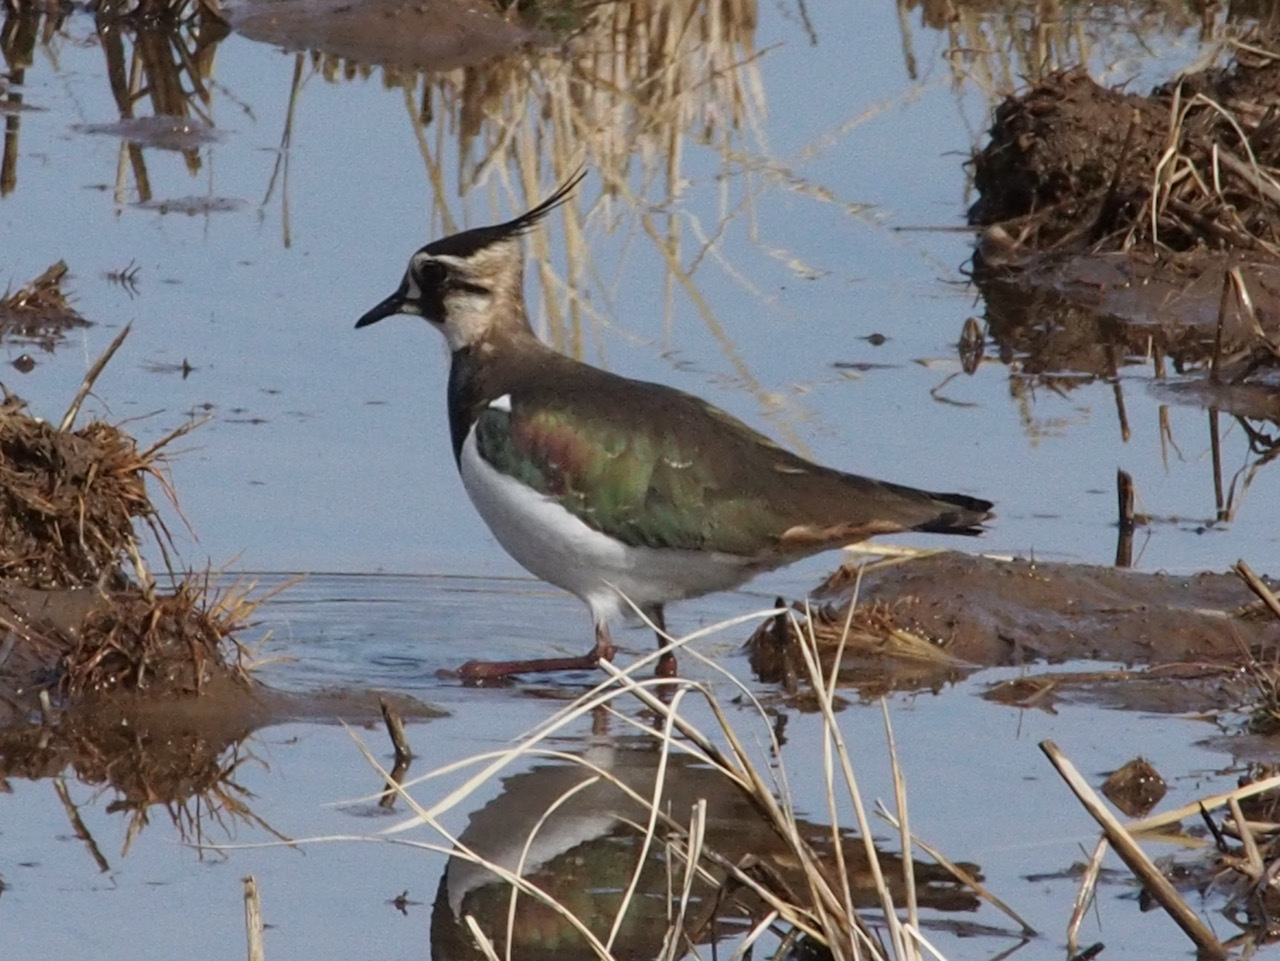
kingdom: Animalia
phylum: Chordata
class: Aves
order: Charadriiformes
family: Charadriidae
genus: Vanellus
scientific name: Vanellus vanellus
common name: Northern lapwing
